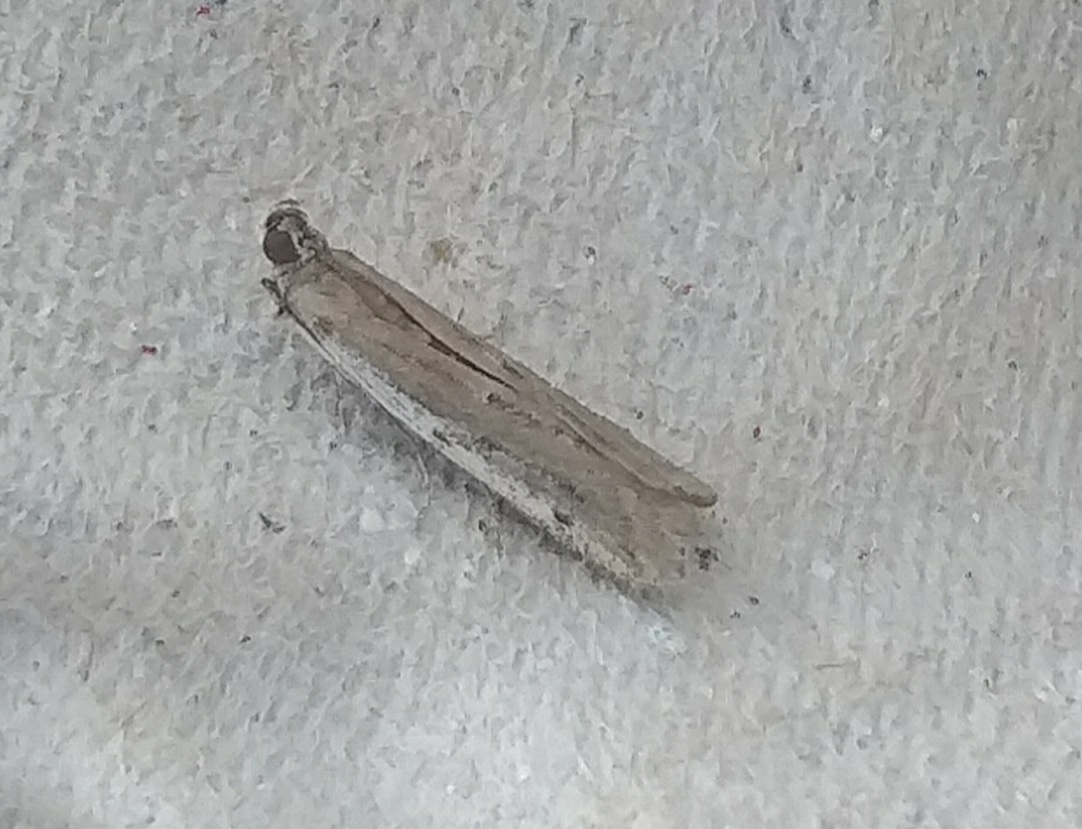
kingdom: Animalia
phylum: Arthropoda
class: Insecta
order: Lepidoptera
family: Pyralidae
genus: Phycitodes
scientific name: Phycitodes binaevella
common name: Ermine knot-horn
